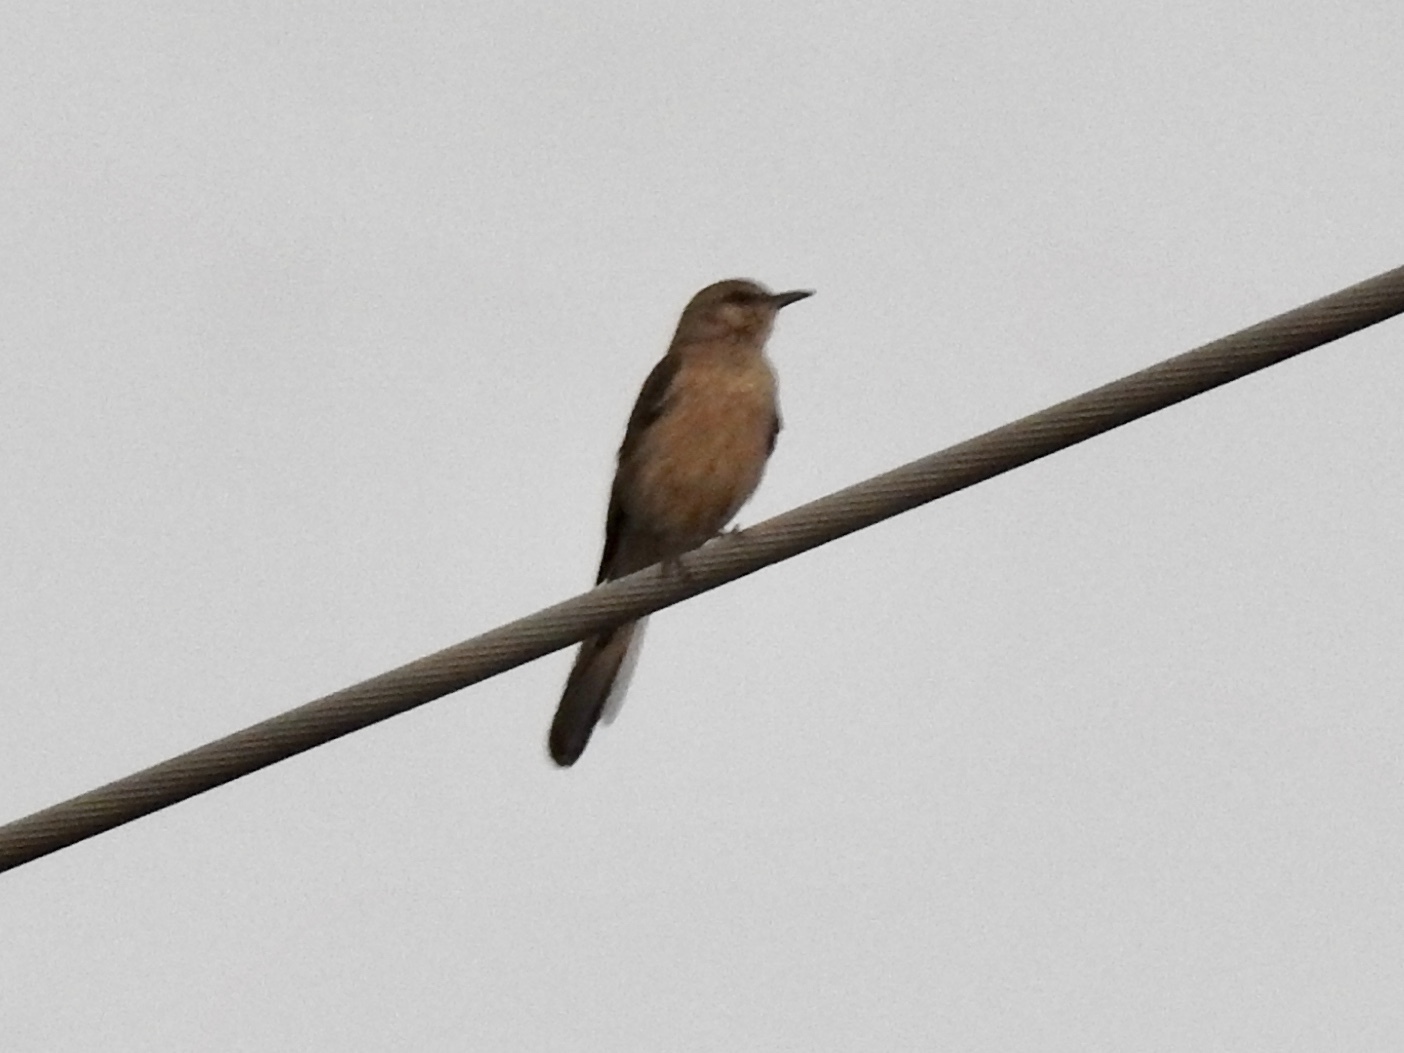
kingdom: Animalia
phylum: Chordata
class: Aves
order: Passeriformes
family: Mimidae
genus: Mimus
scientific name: Mimus polyglottos
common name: Northern mockingbird
